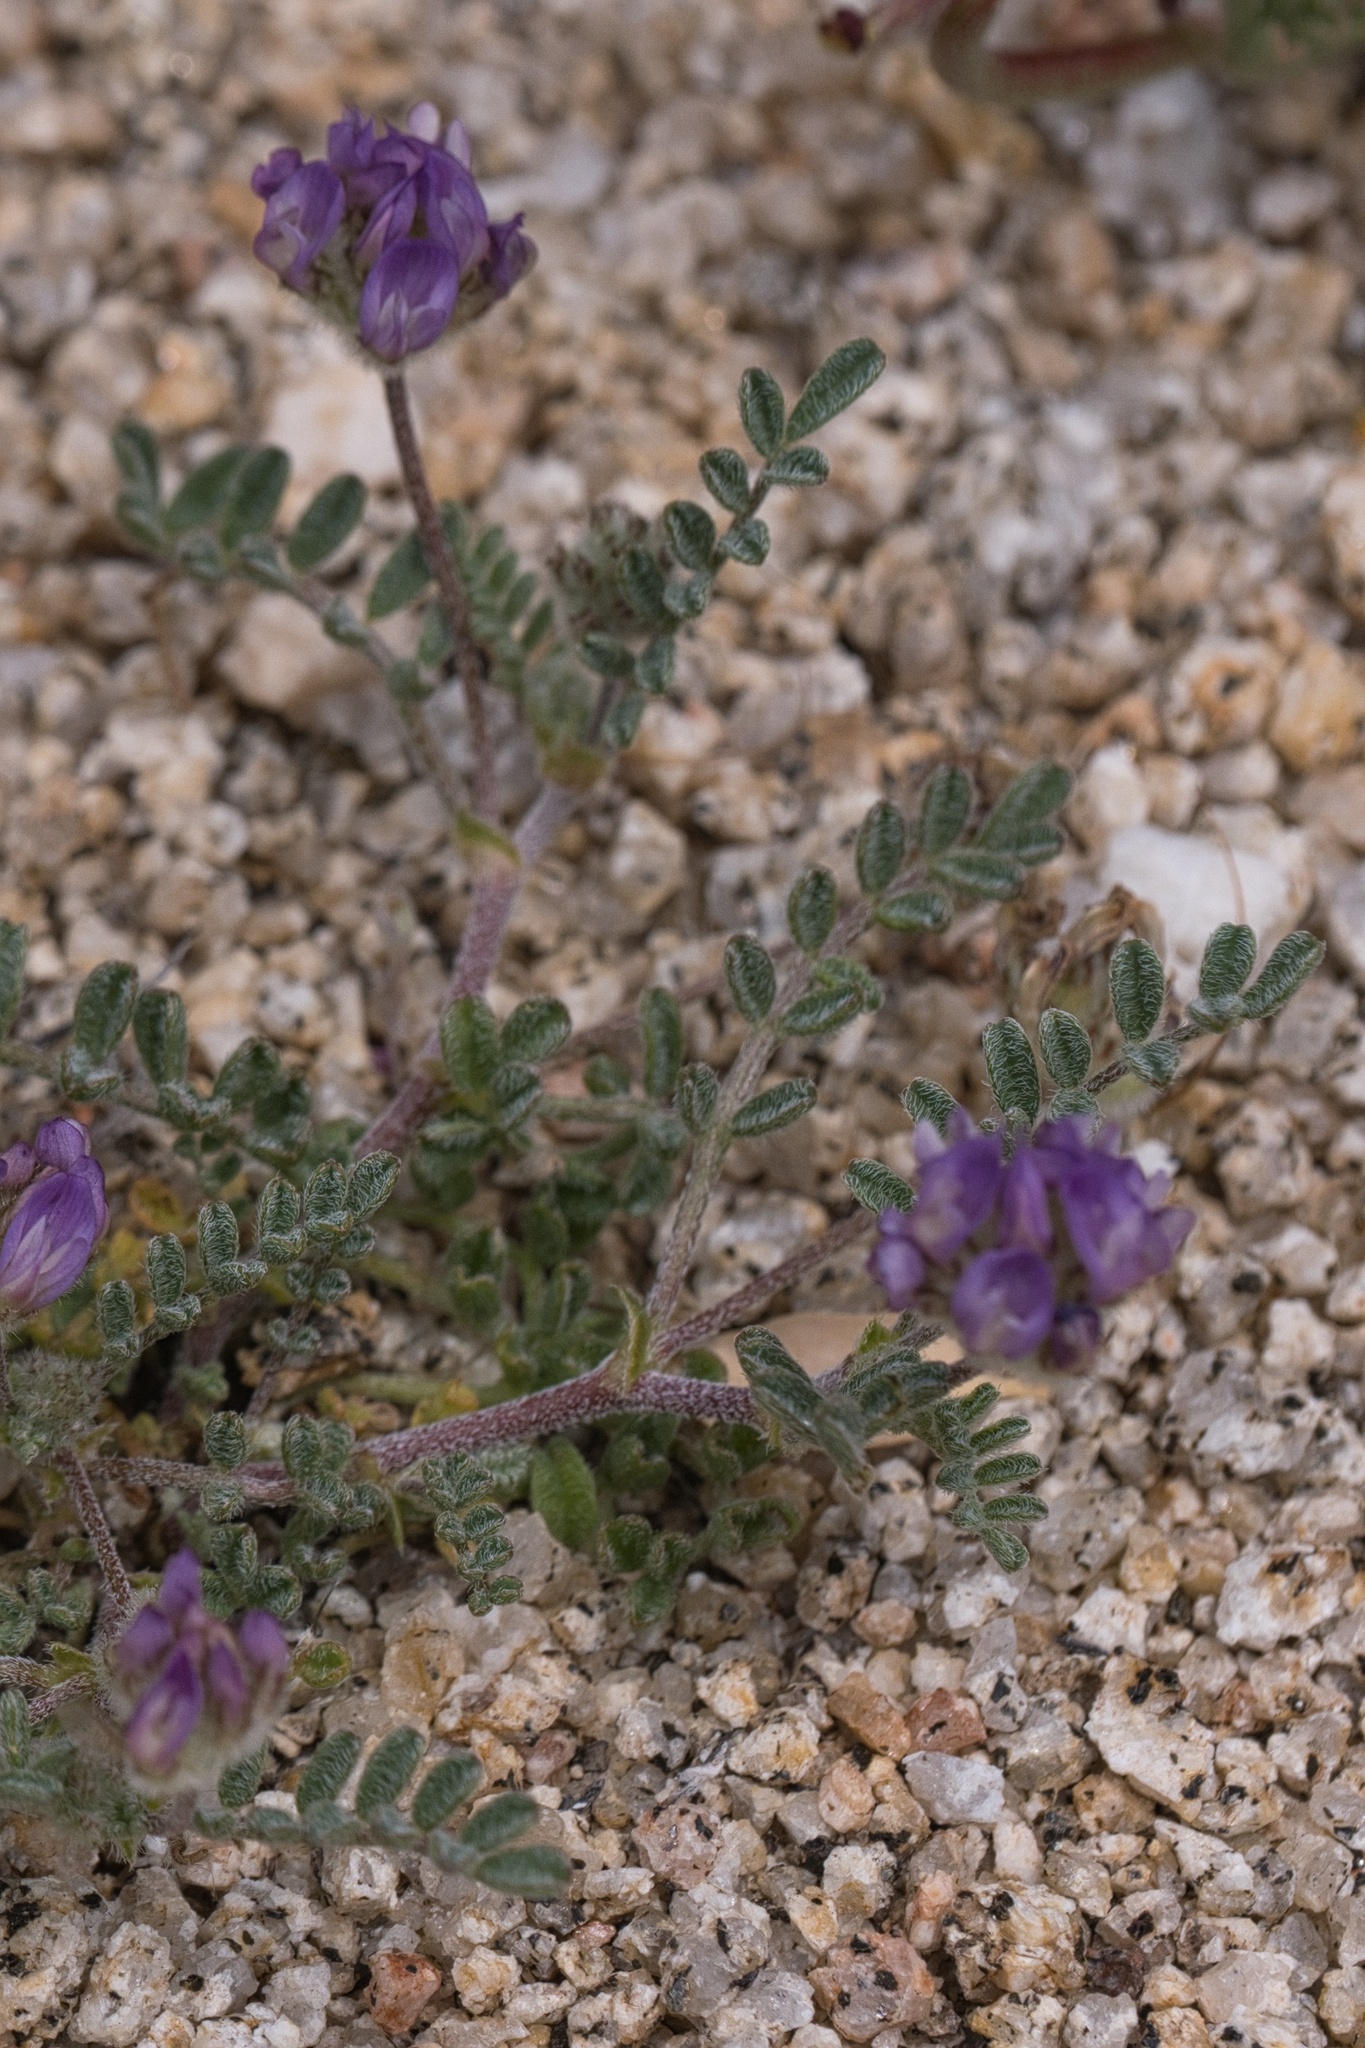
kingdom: Plantae
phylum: Tracheophyta
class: Magnoliopsida
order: Fabales
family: Fabaceae
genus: Astragalus
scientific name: Astragalus didymocarpus
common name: Dwarf white milkvetch
